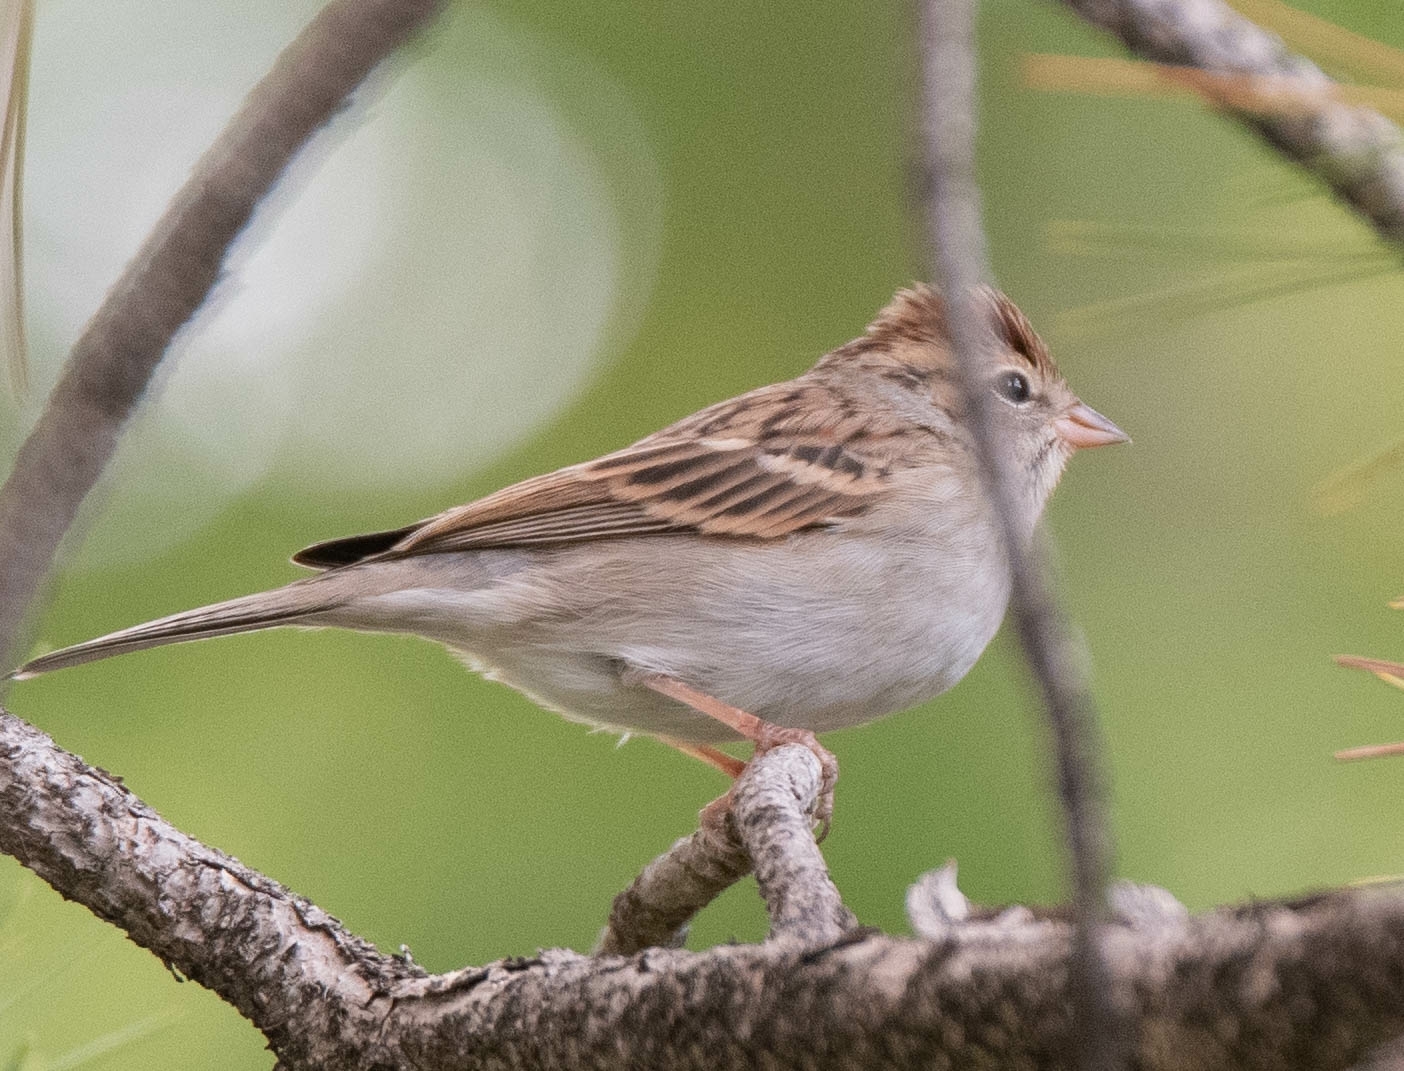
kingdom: Animalia
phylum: Chordata
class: Aves
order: Passeriformes
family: Passerellidae
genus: Spizella
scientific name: Spizella passerina
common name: Chipping sparrow
